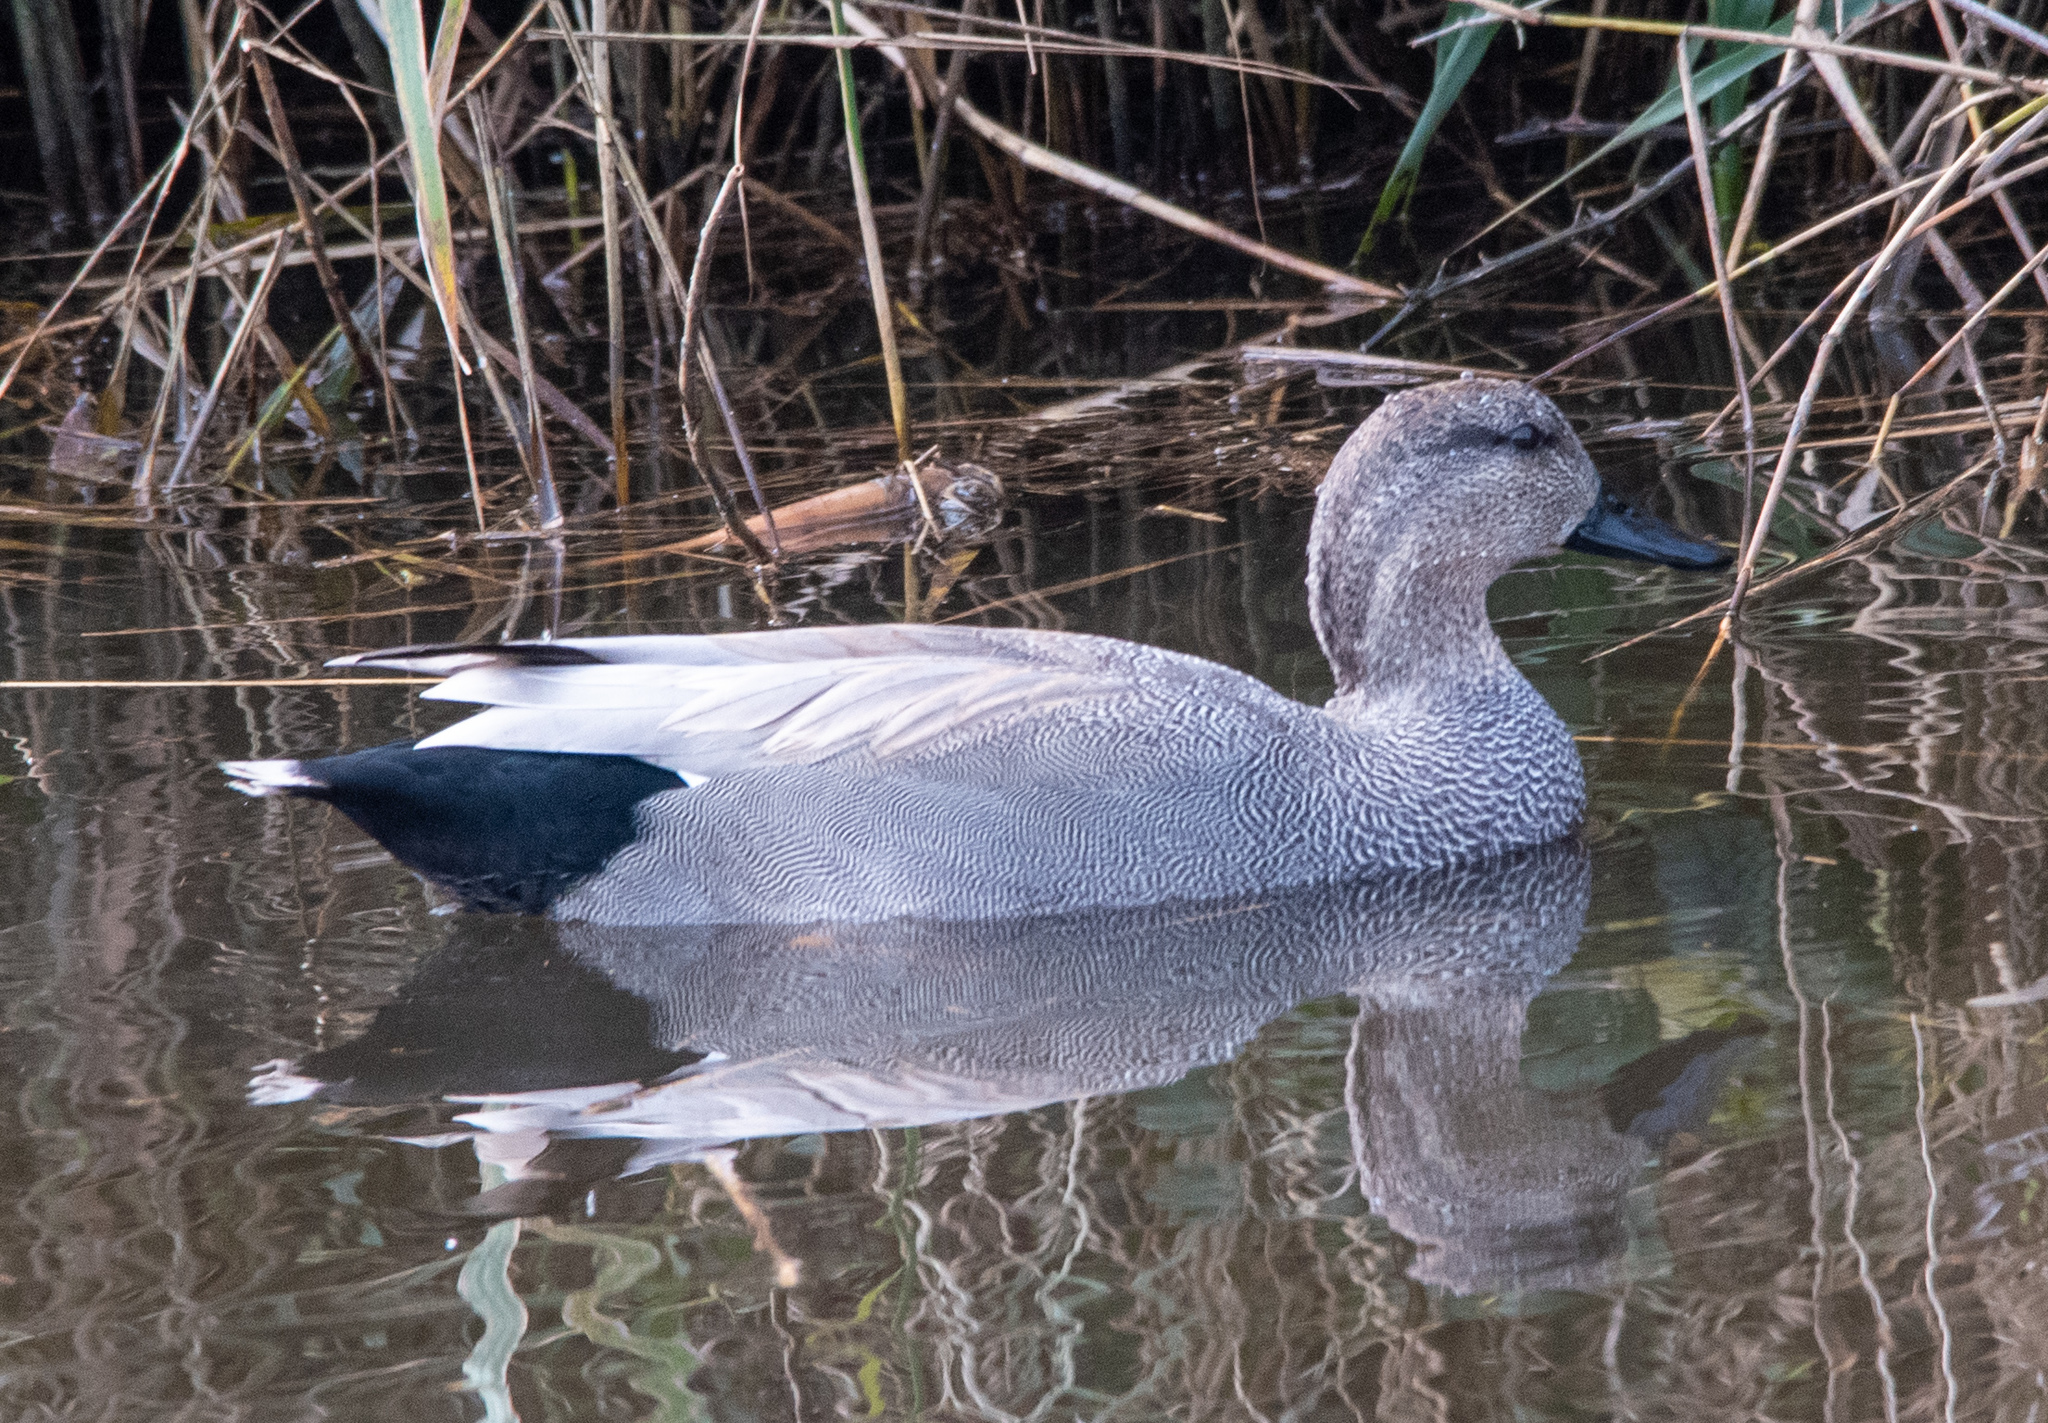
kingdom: Animalia
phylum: Chordata
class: Aves
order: Anseriformes
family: Anatidae
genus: Mareca
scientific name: Mareca strepera
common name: Gadwall
